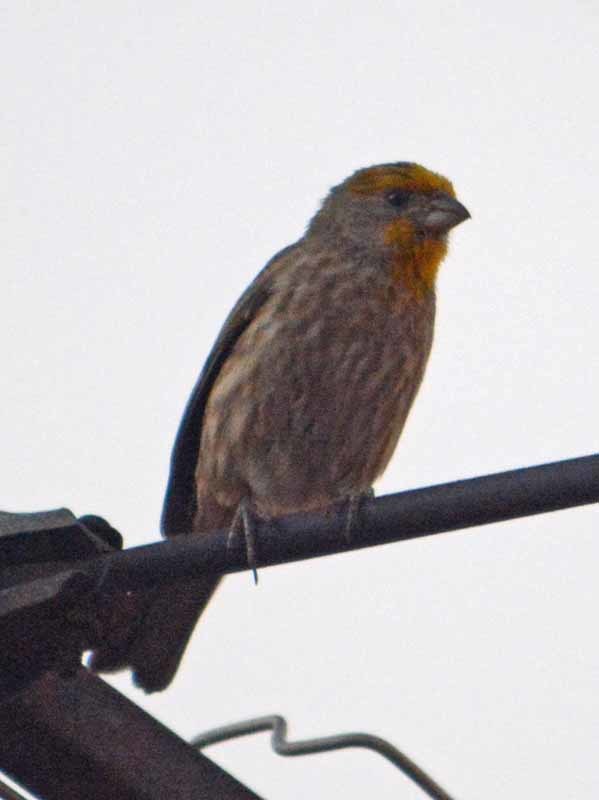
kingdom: Animalia
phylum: Chordata
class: Aves
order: Passeriformes
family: Fringillidae
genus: Haemorhous
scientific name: Haemorhous mexicanus
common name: House finch
